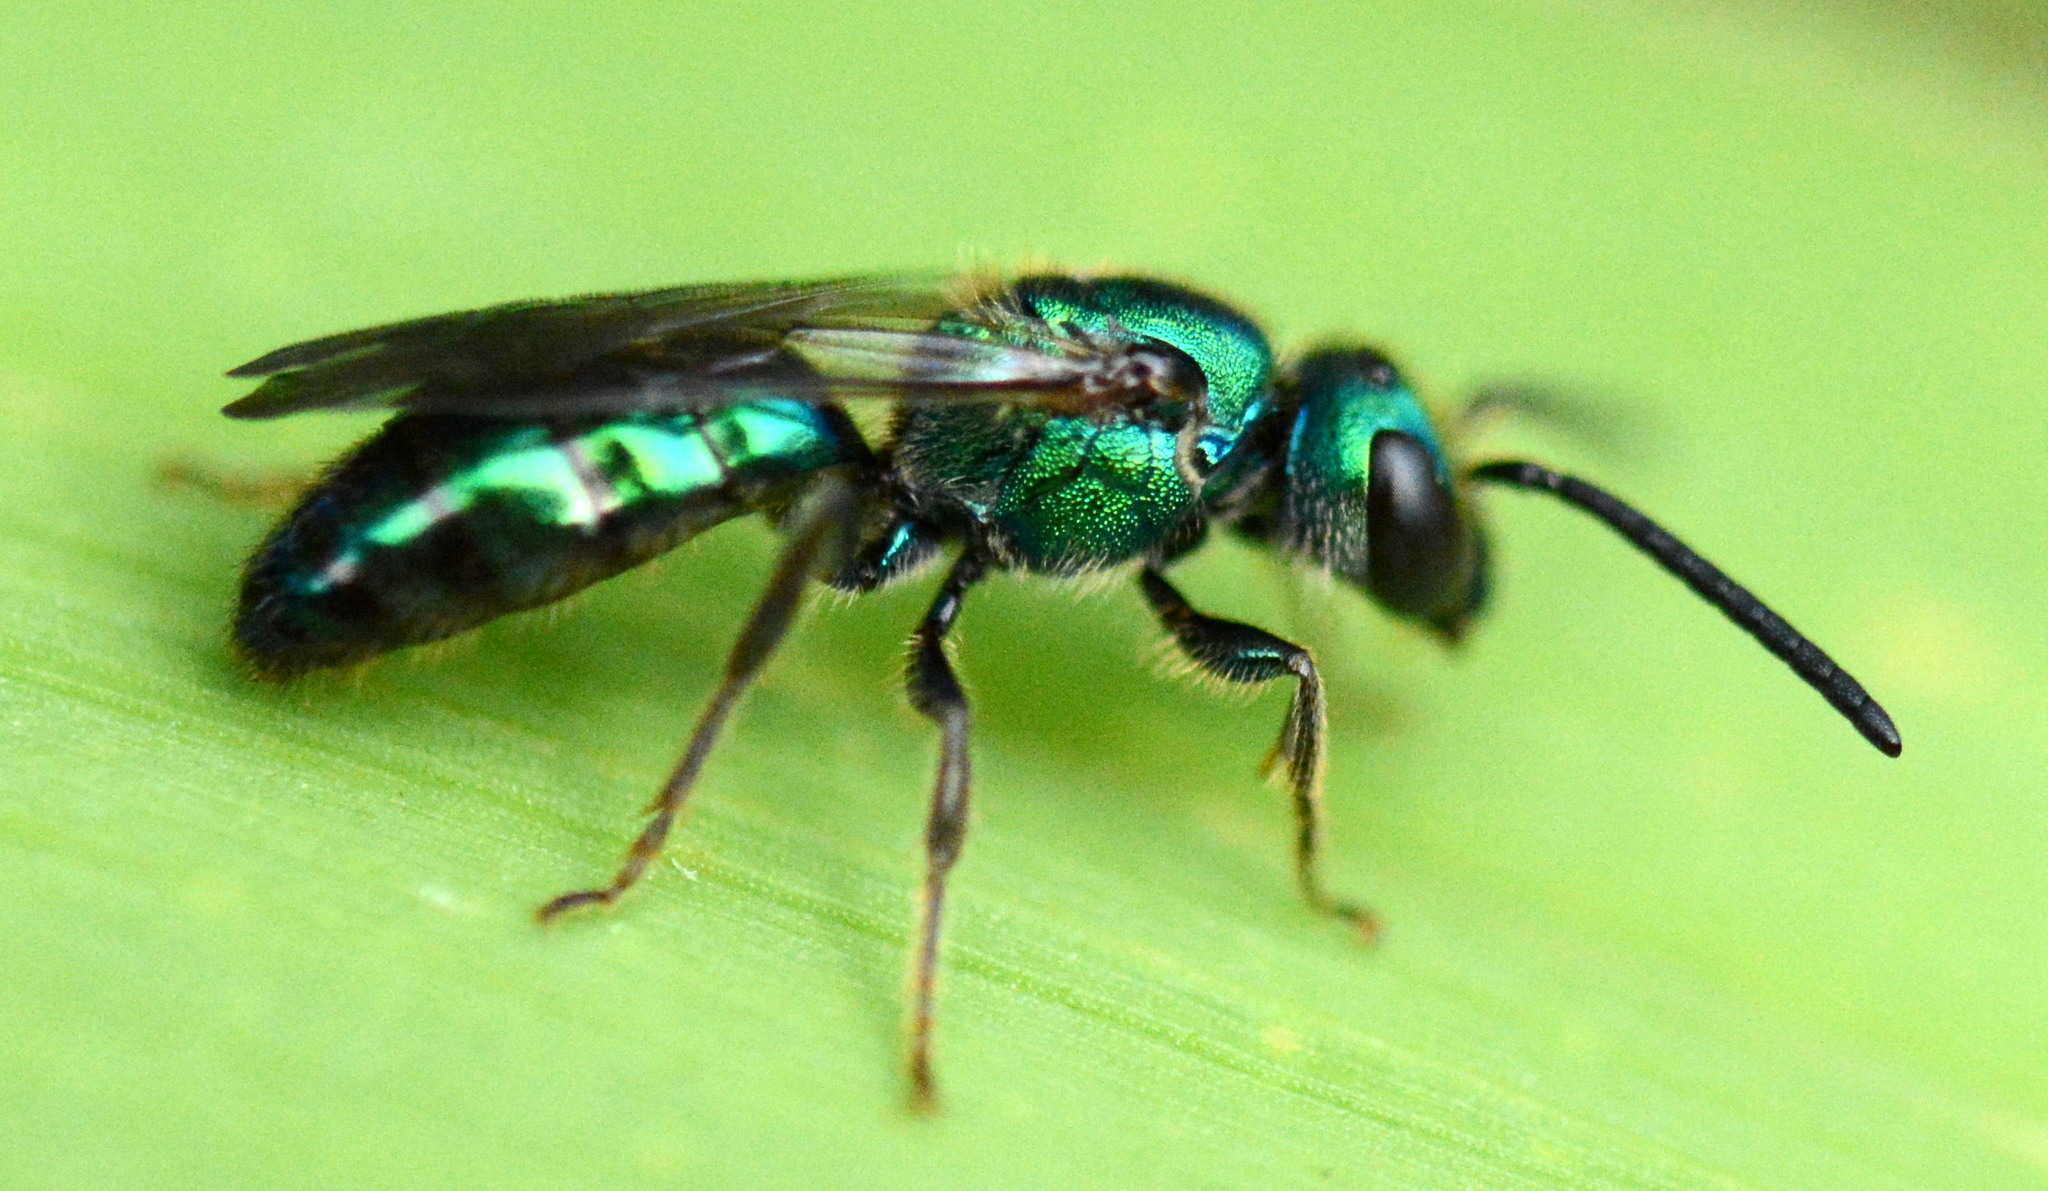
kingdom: Animalia
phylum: Arthropoda
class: Insecta
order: Hymenoptera
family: Halictidae
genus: Augochlora
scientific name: Augochlora pura
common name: Pure green sweat bee
